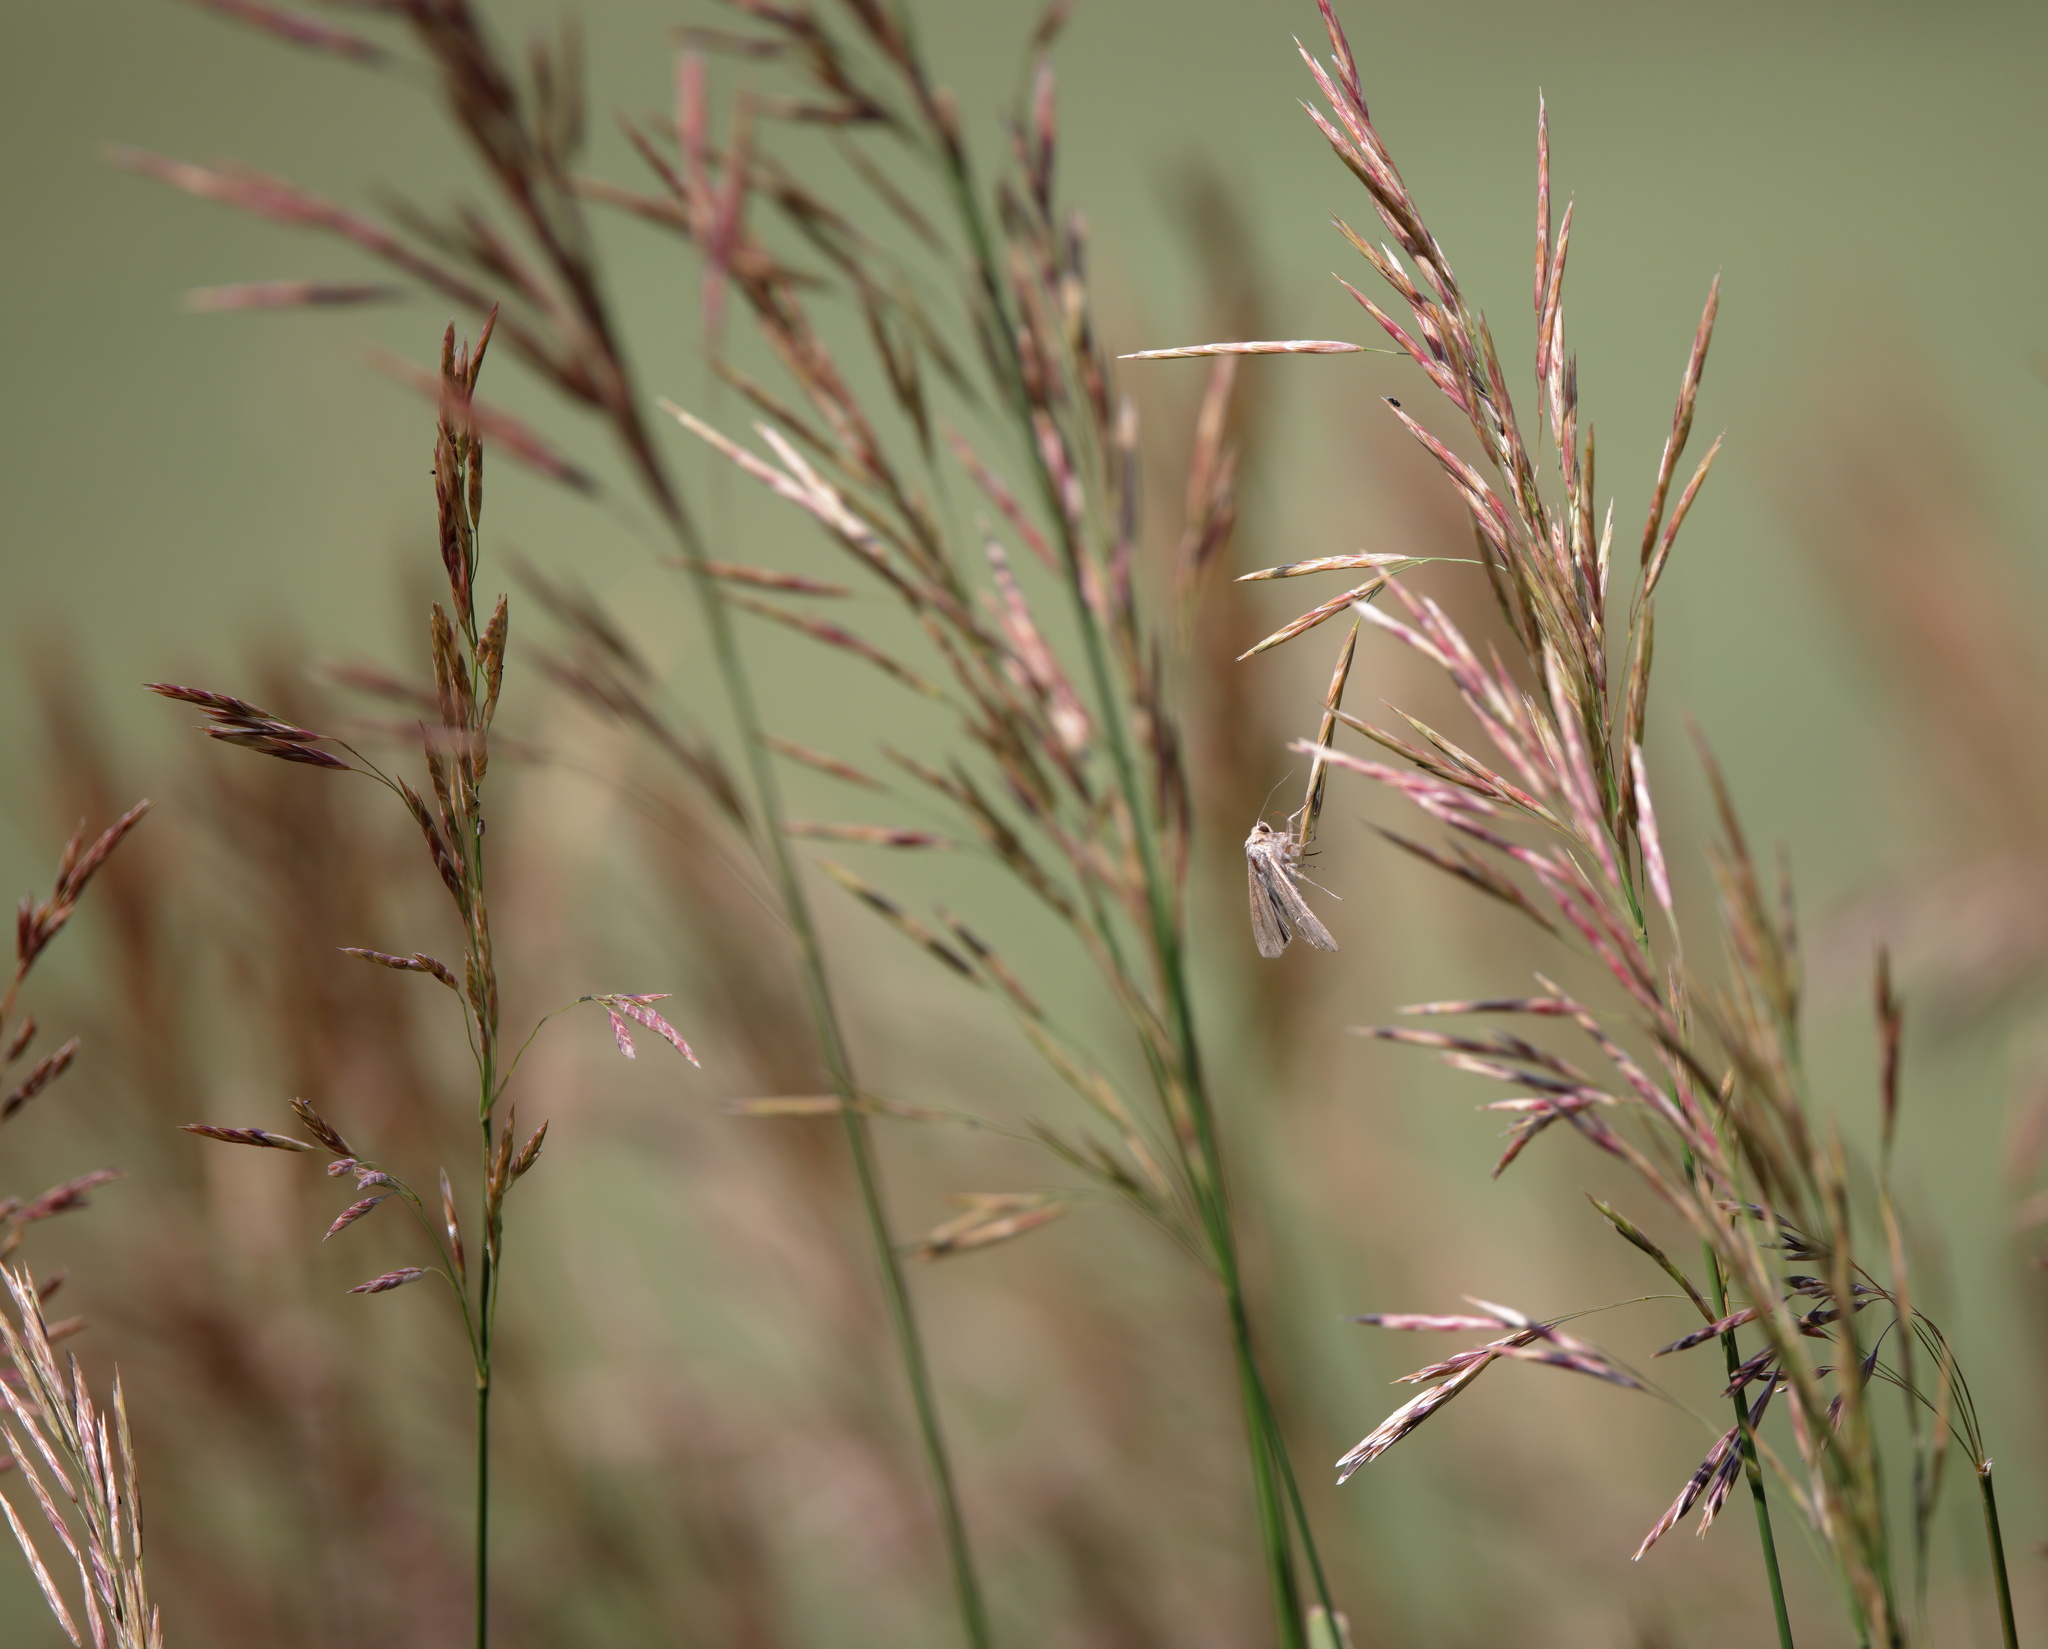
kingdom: Plantae
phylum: Tracheophyta
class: Liliopsida
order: Poales
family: Poaceae
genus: Bromus
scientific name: Bromus inermis
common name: Smooth brome
